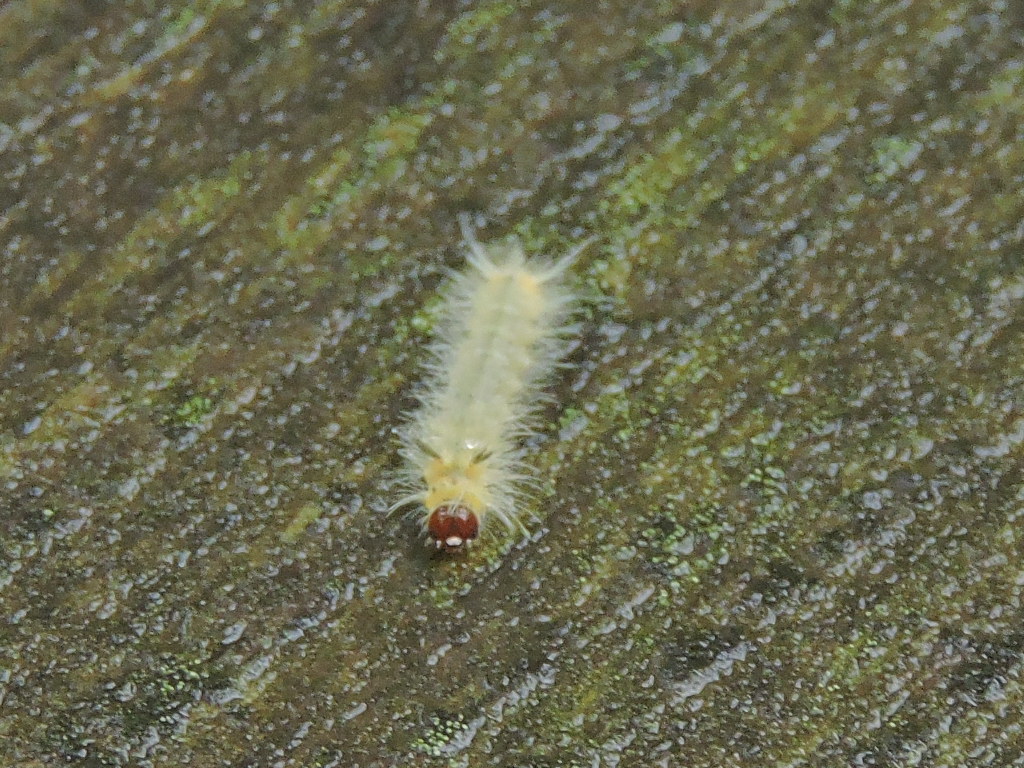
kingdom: Animalia
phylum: Arthropoda
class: Insecta
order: Lepidoptera
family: Erebidae
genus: Halysidota
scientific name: Halysidota tessellaris
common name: Banded tussock moth
